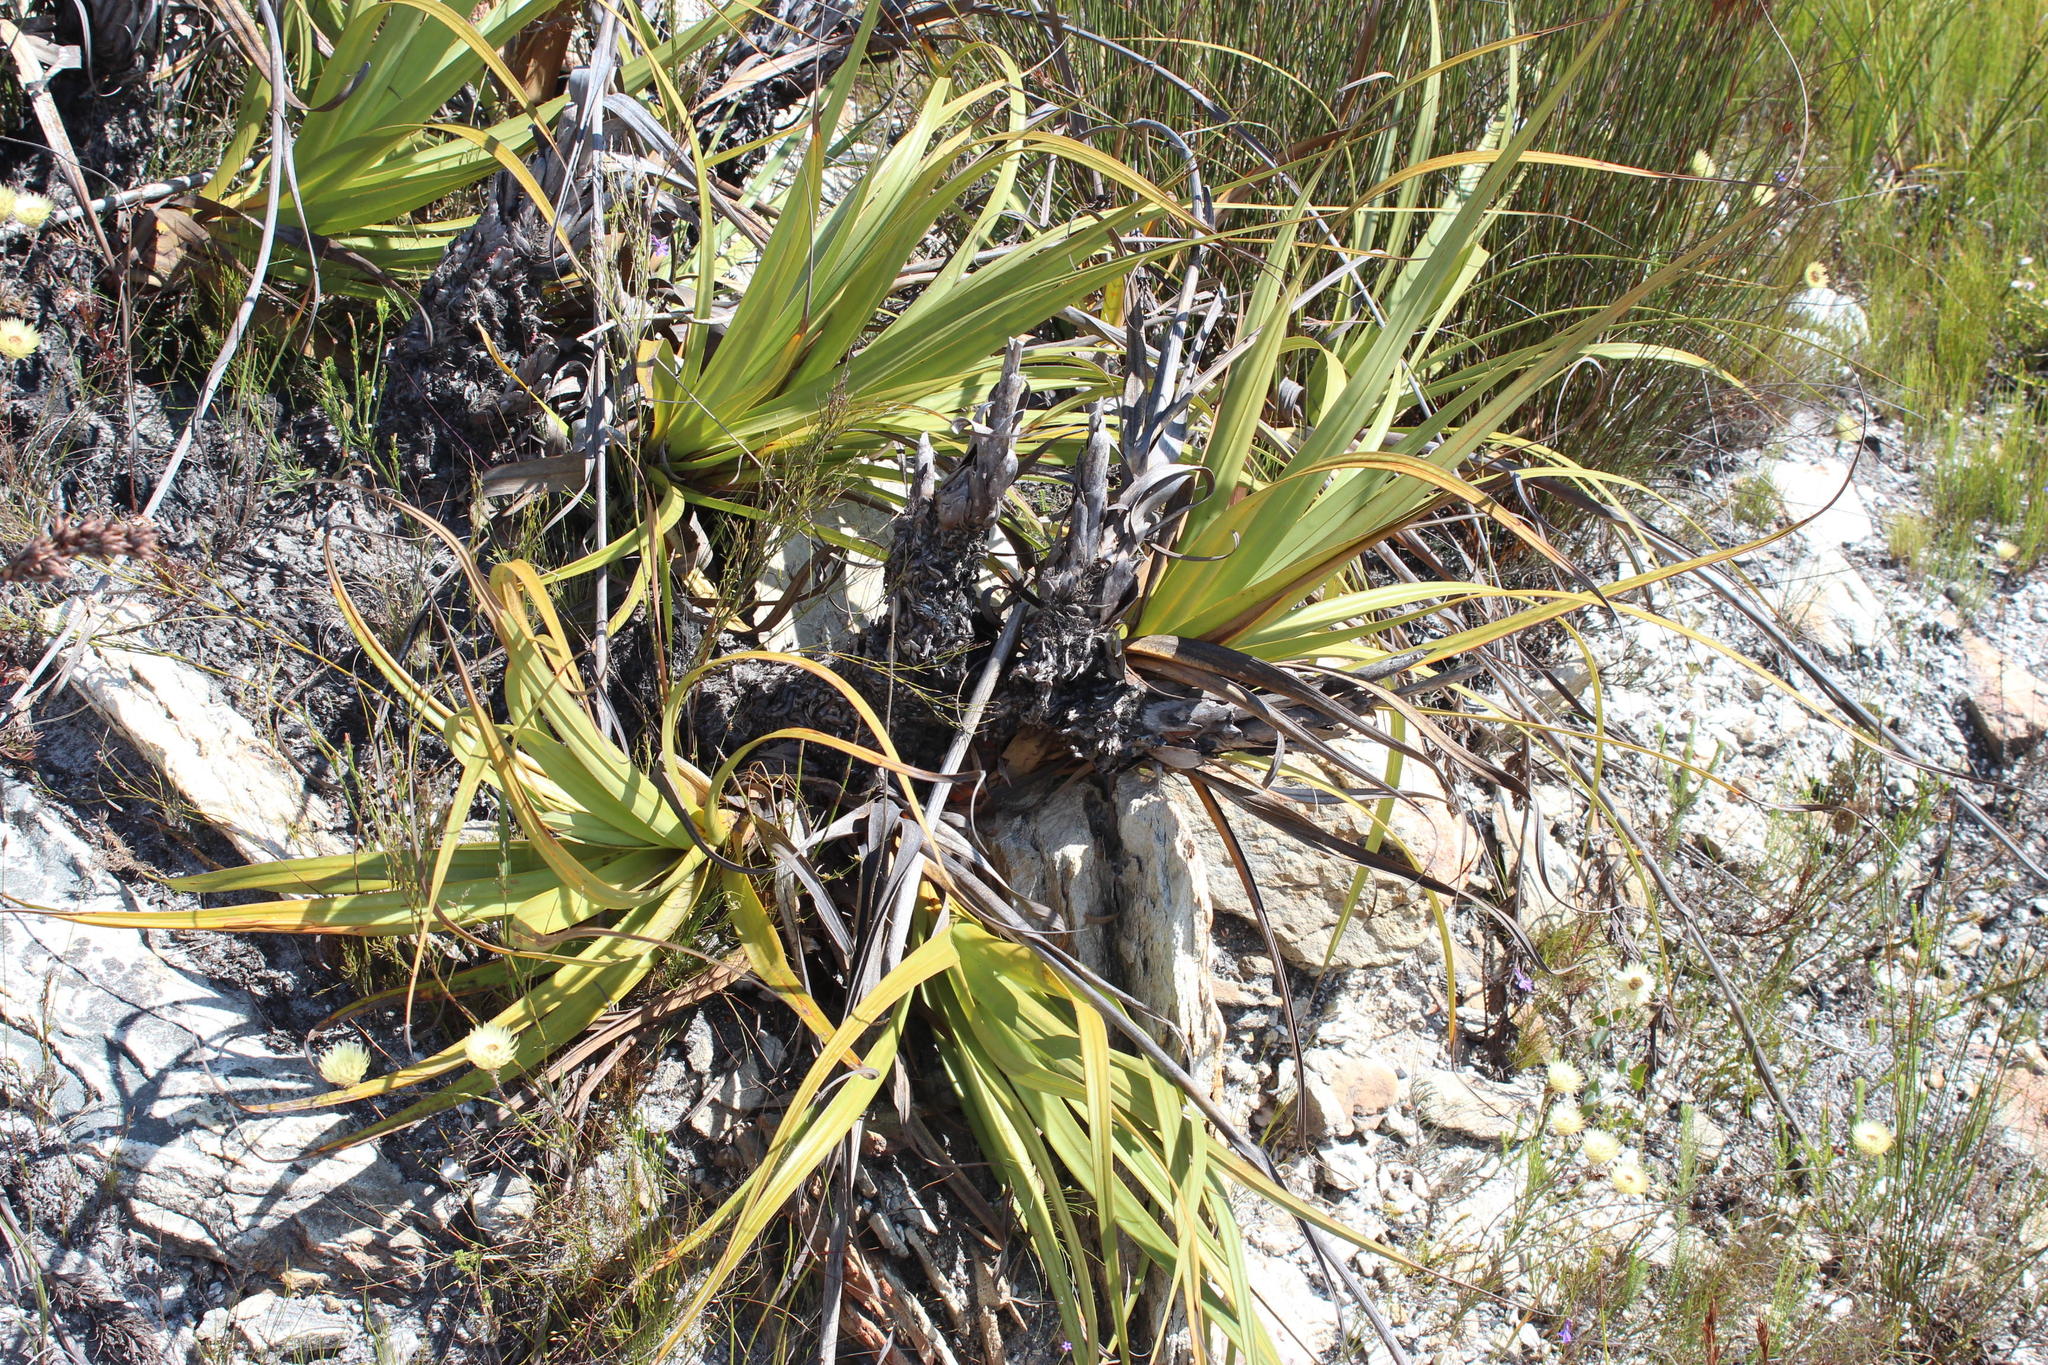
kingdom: Plantae
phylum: Tracheophyta
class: Liliopsida
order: Poales
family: Cyperaceae
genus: Tetraria
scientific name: Tetraria thermalis
